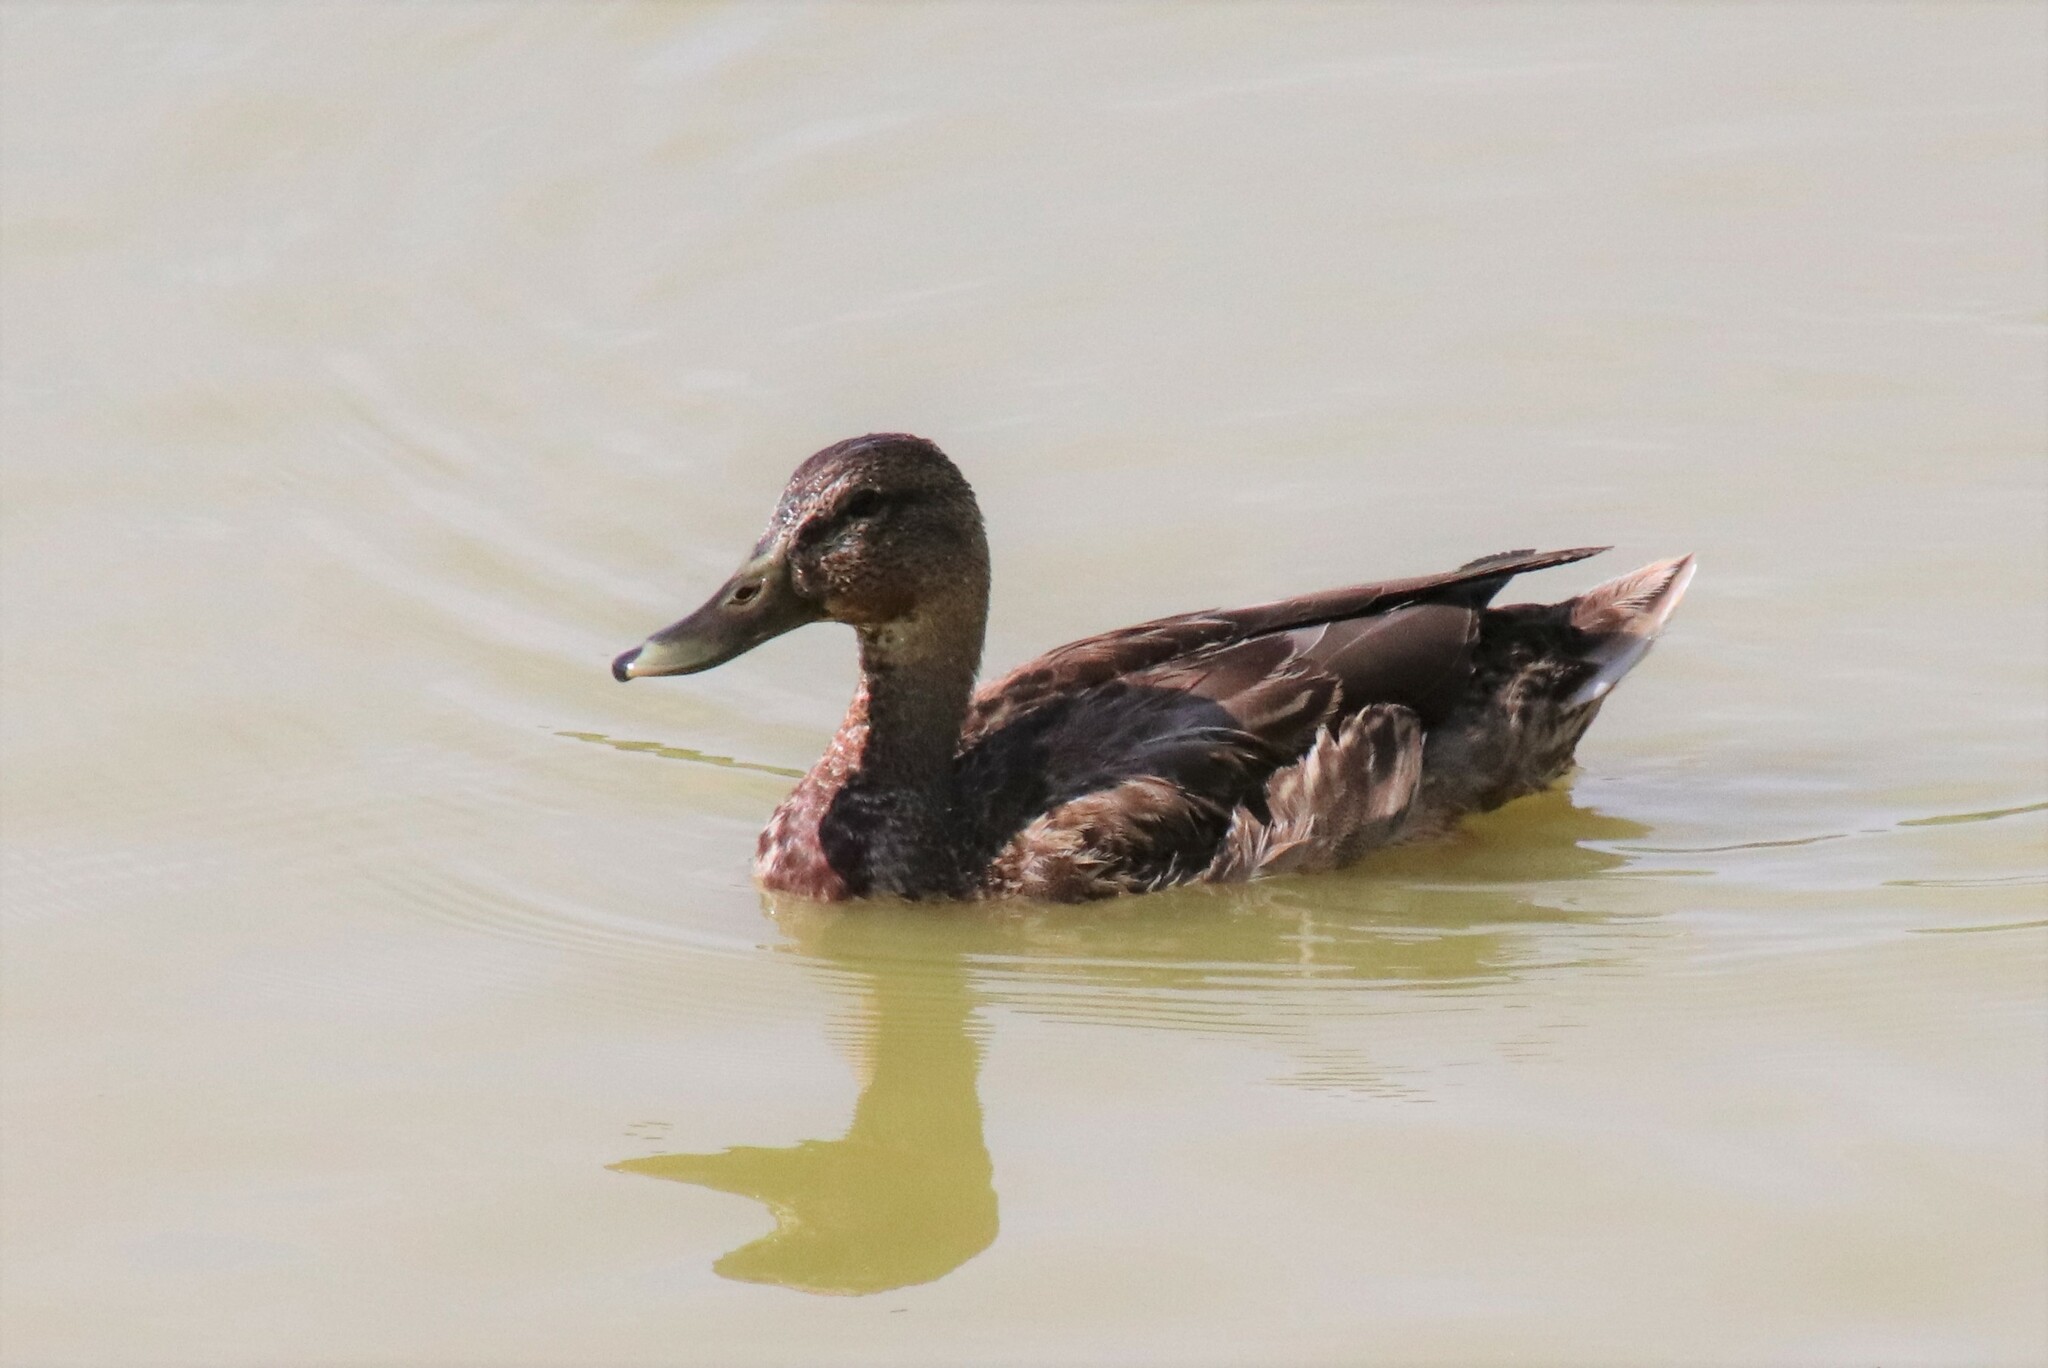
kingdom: Animalia
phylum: Chordata
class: Aves
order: Anseriformes
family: Anatidae
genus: Anas
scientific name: Anas platyrhynchos
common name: Mallard
